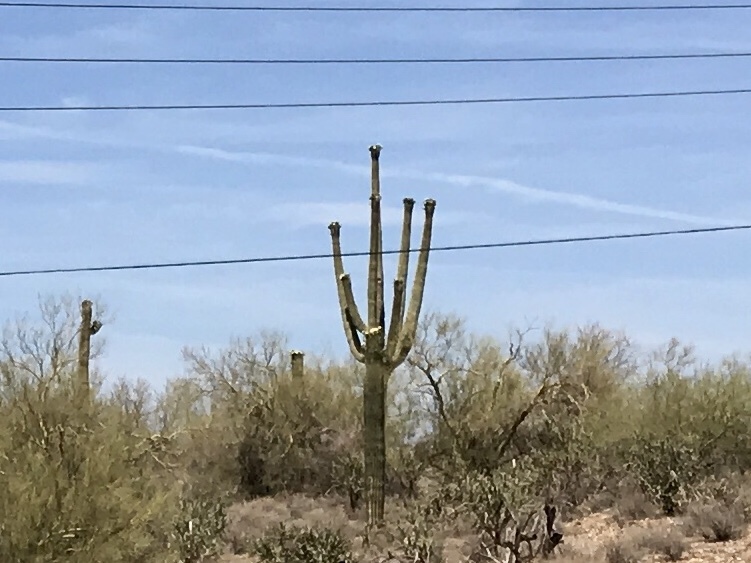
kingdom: Plantae
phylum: Tracheophyta
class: Magnoliopsida
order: Caryophyllales
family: Cactaceae
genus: Carnegiea
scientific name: Carnegiea gigantea
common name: Saguaro
